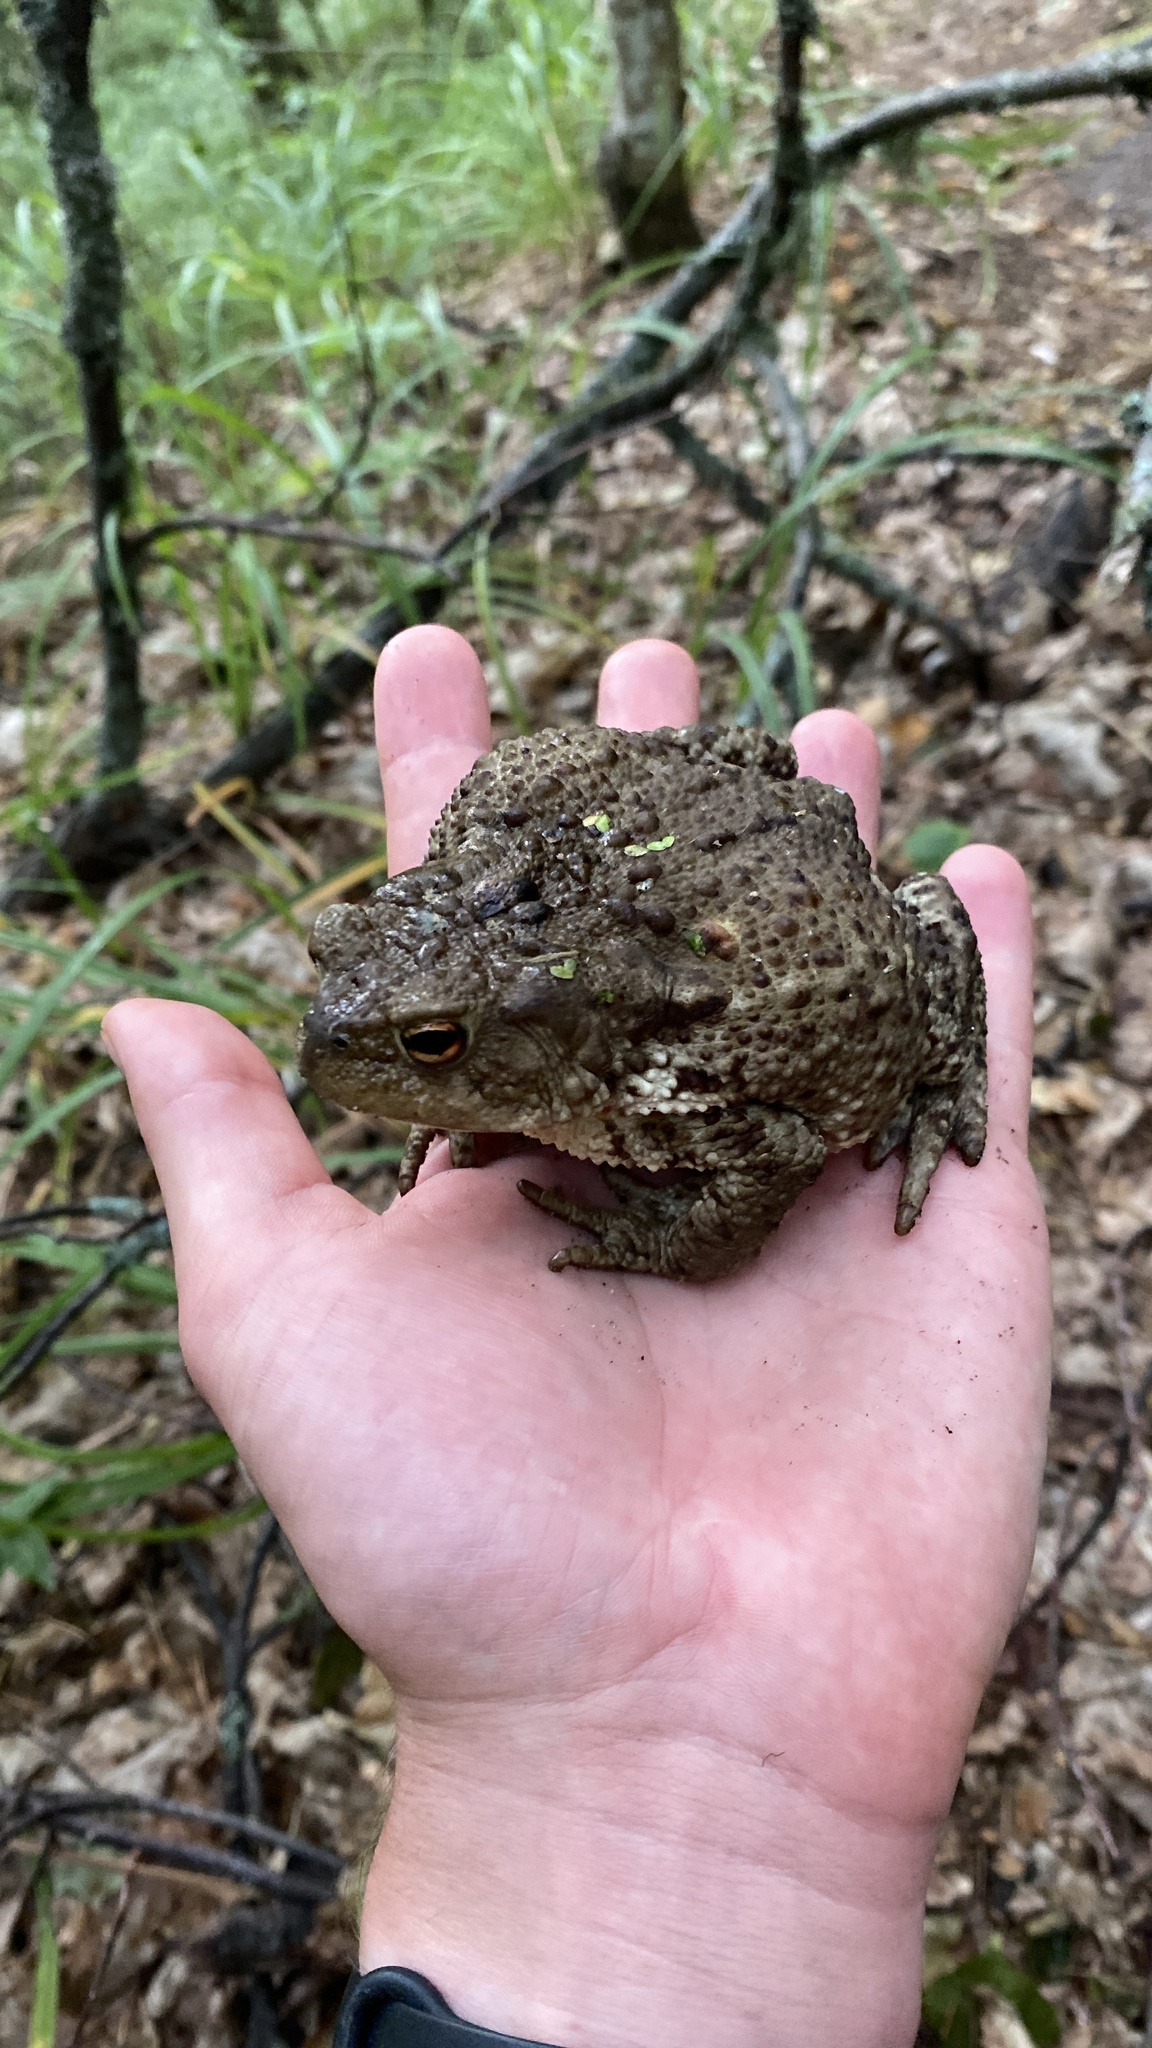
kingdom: Animalia
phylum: Chordata
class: Amphibia
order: Anura
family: Bufonidae
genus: Bufo
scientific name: Bufo bufo
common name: Common toad
